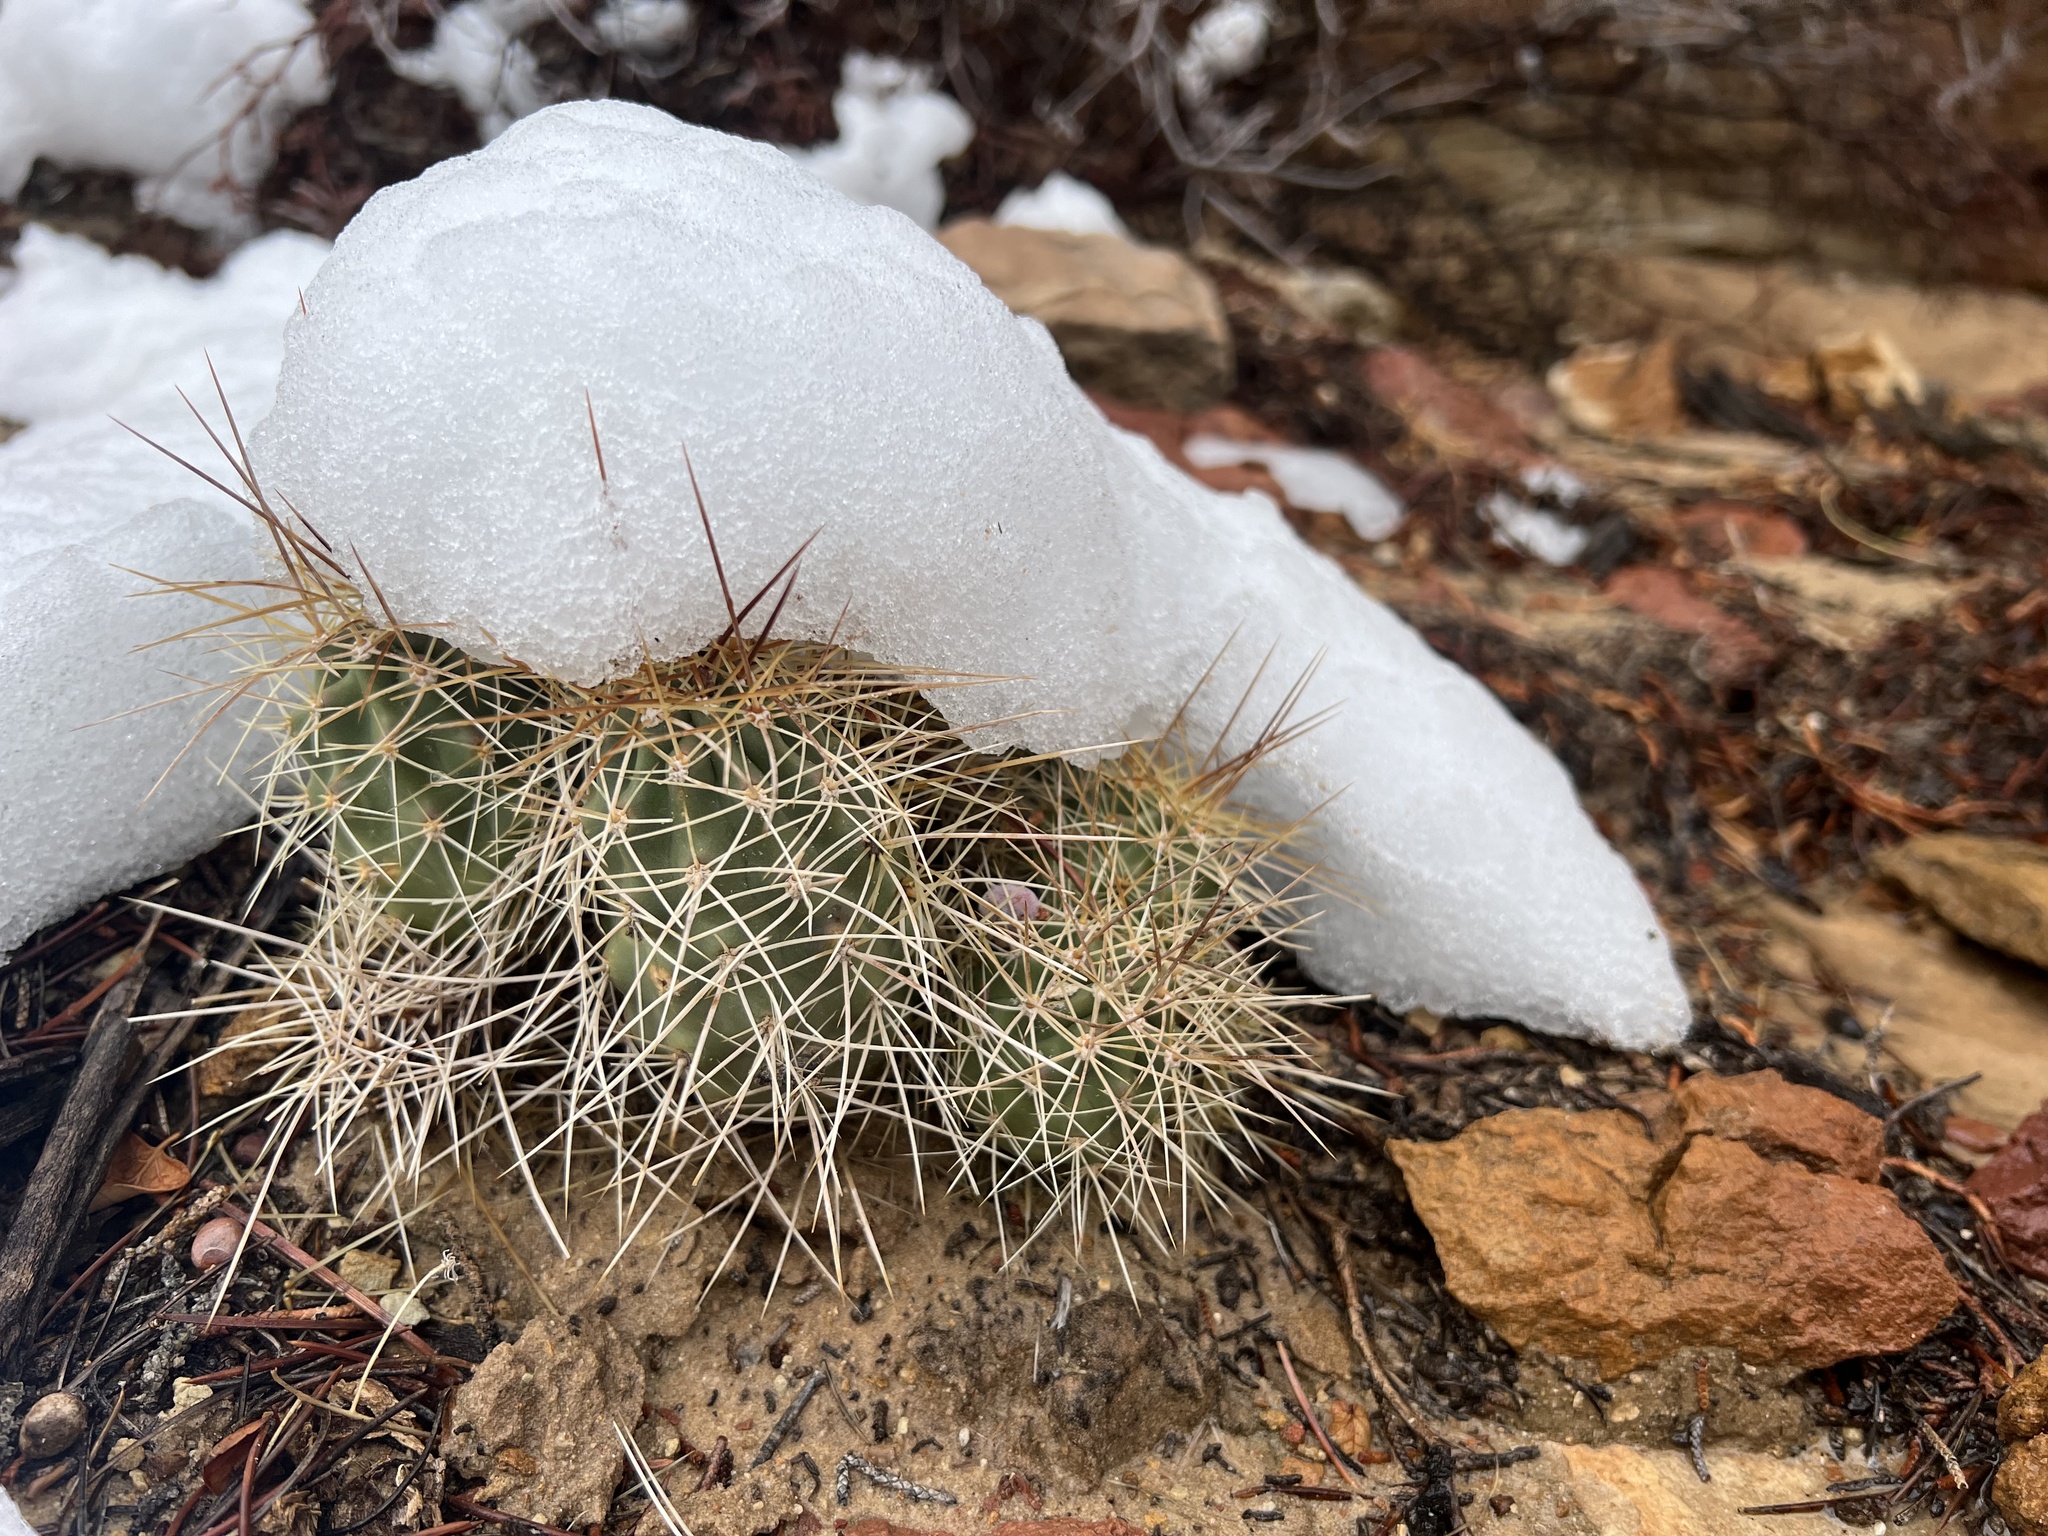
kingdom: Plantae
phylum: Tracheophyta
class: Magnoliopsida
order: Caryophyllales
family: Cactaceae
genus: Echinocereus
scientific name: Echinocereus triglochidiatus
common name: Claretcup hedgehog
